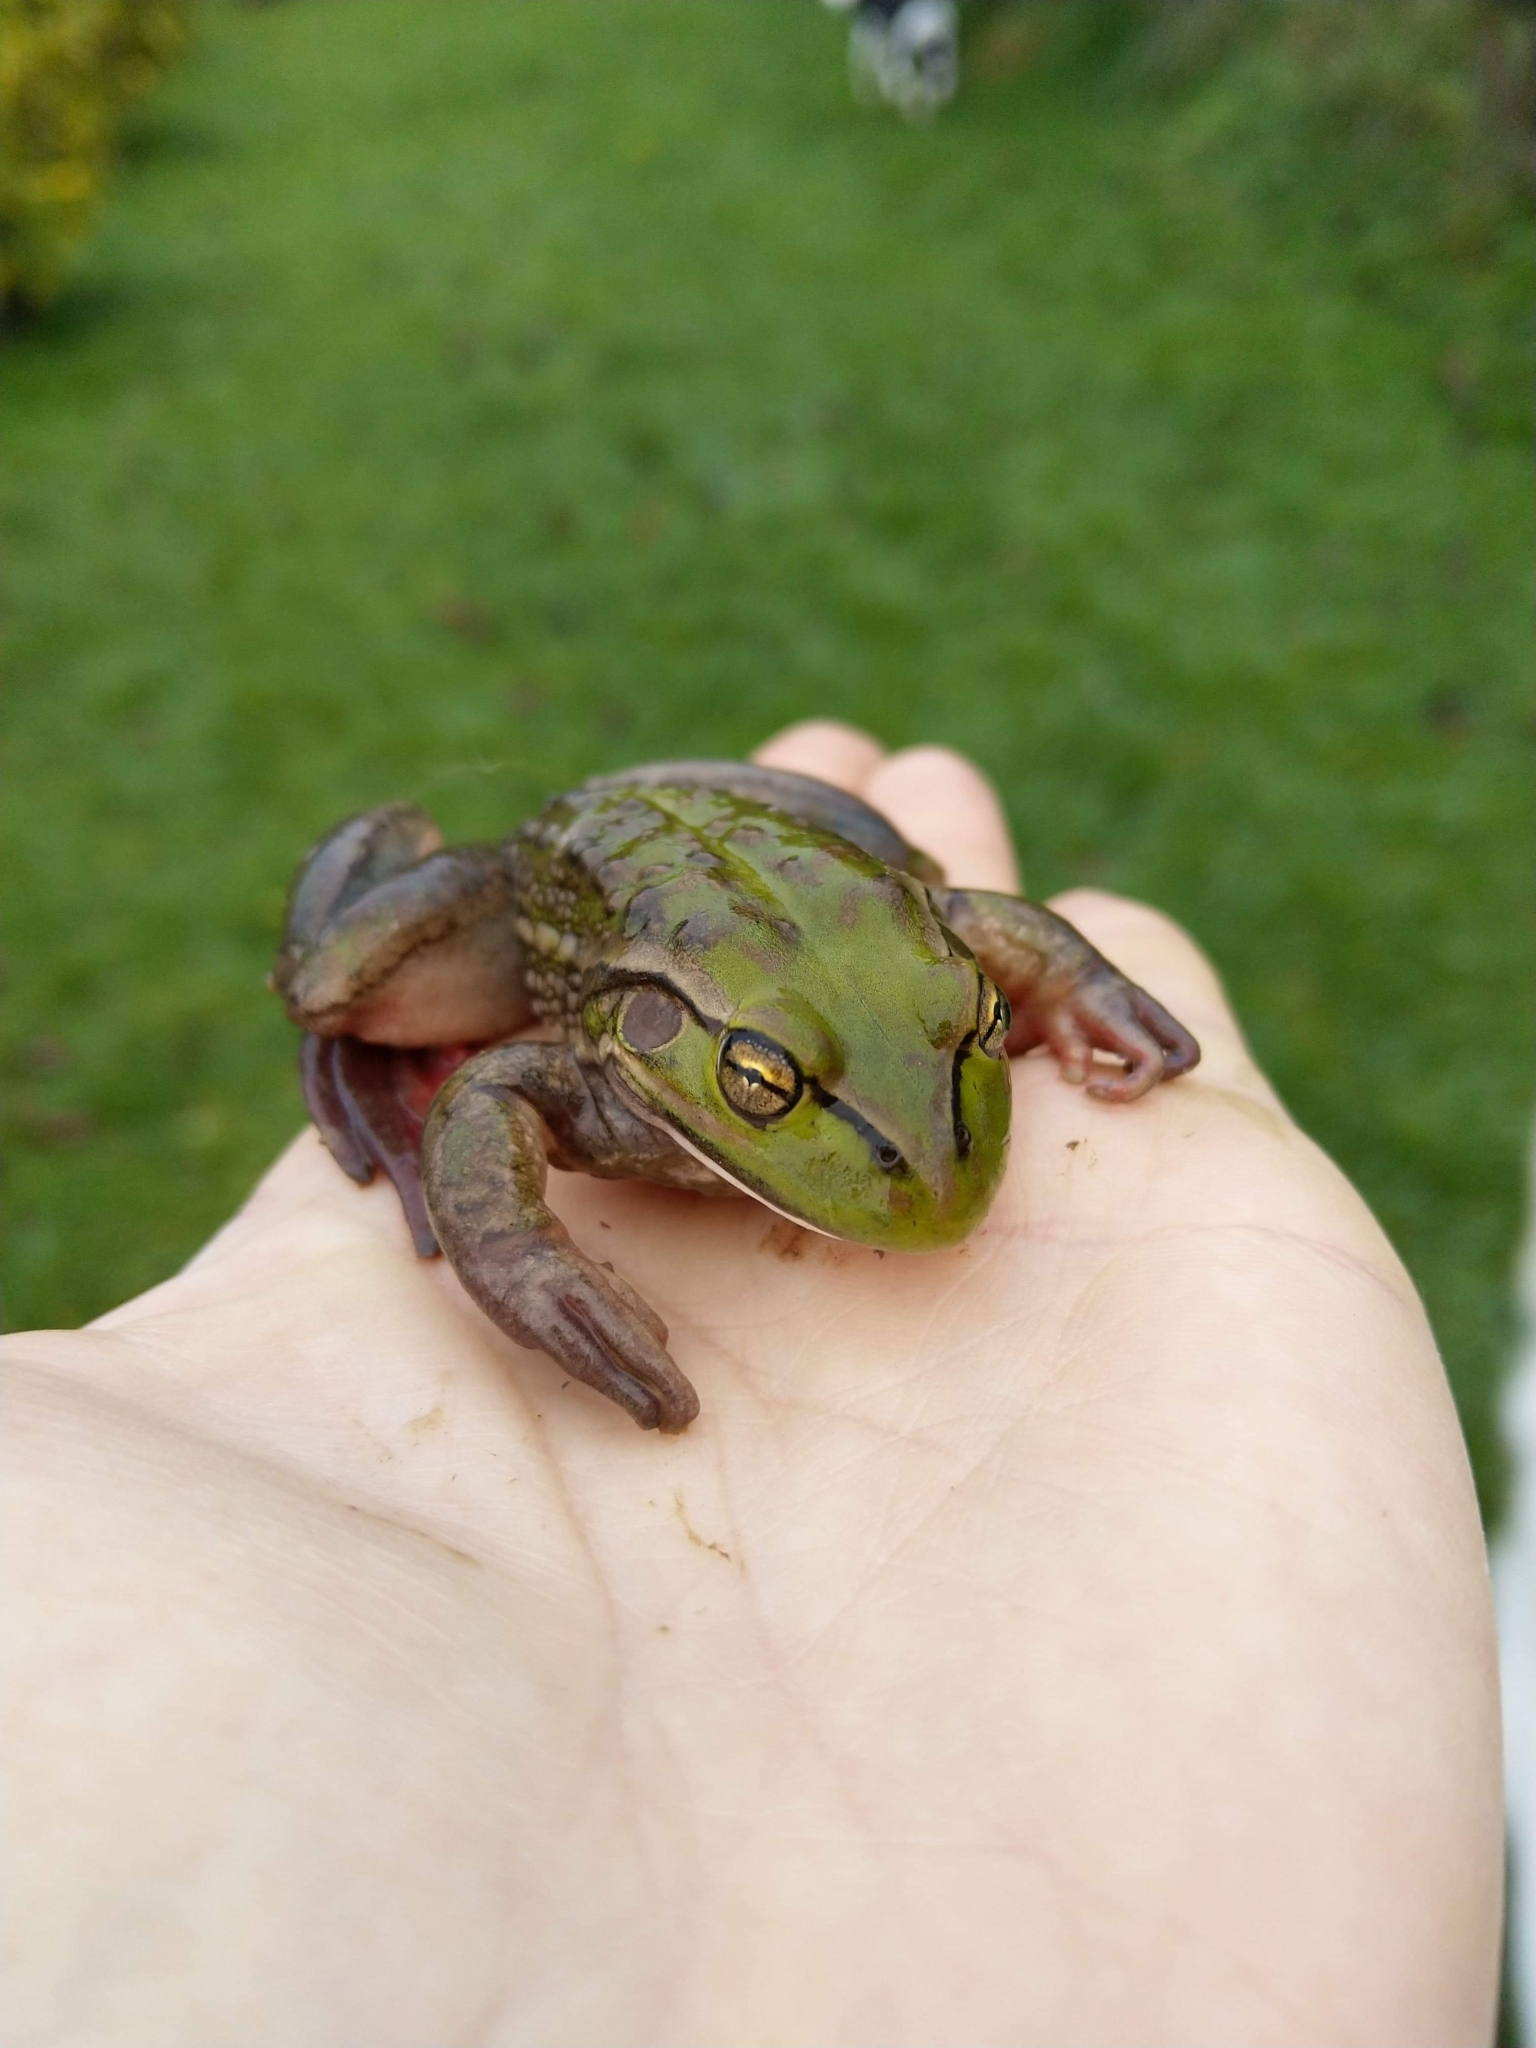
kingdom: Animalia
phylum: Chordata
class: Amphibia
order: Anura
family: Pelodryadidae
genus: Ranoidea
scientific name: Ranoidea raniformis
